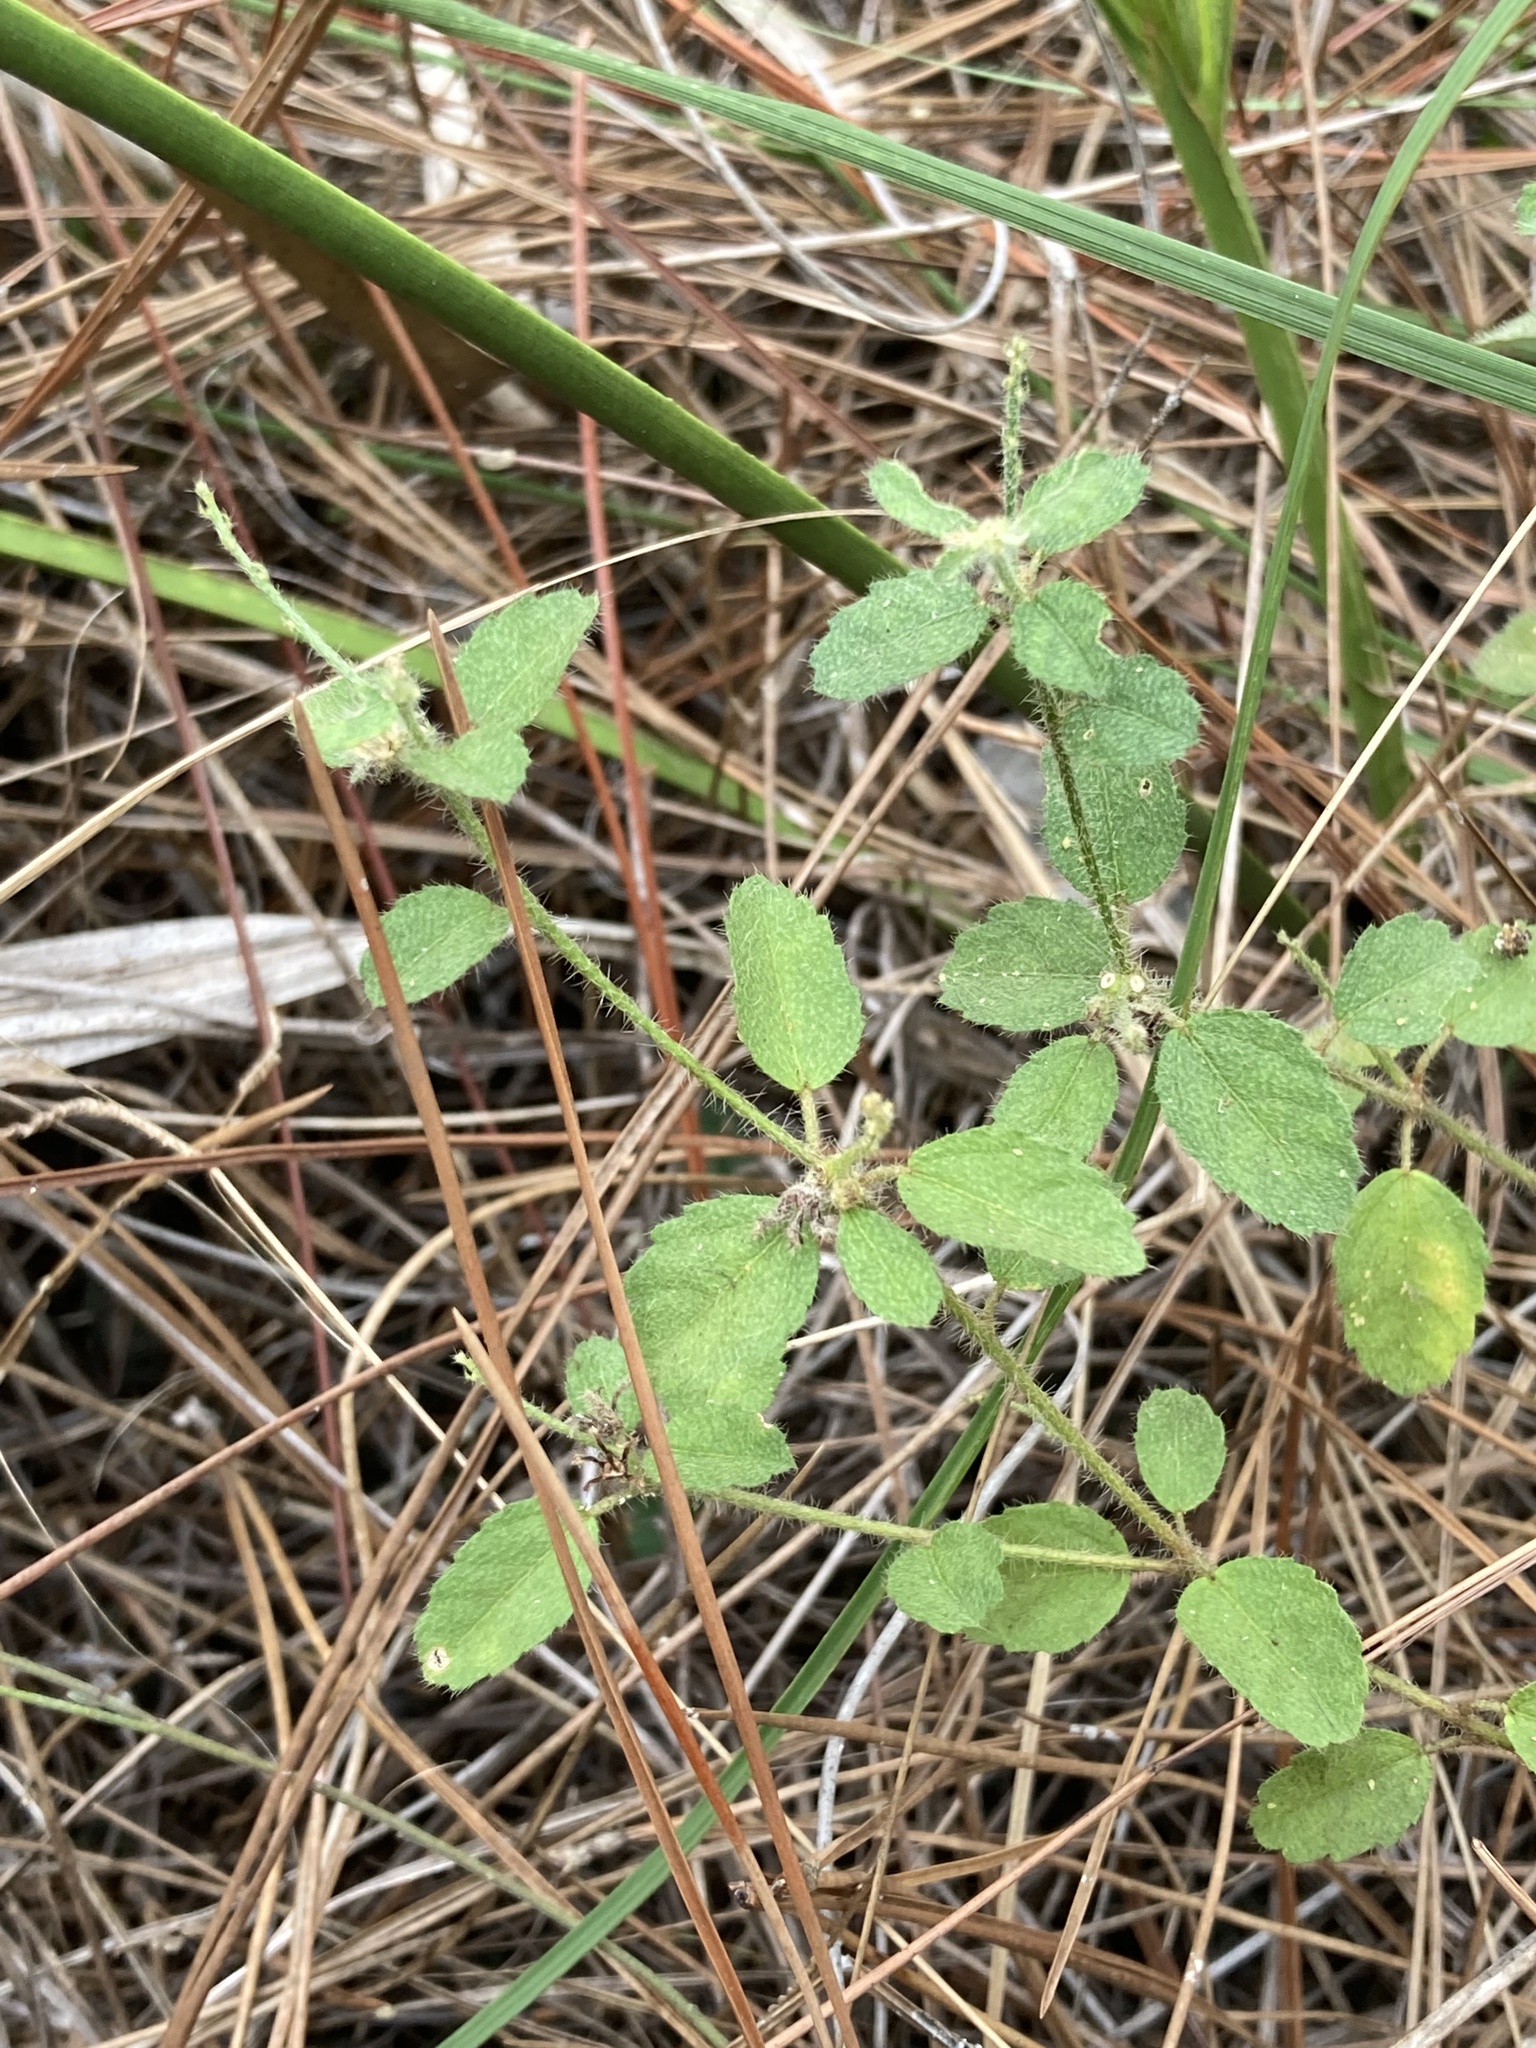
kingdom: Plantae
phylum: Tracheophyta
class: Magnoliopsida
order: Malpighiales
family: Euphorbiaceae
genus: Croton
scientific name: Croton glandulosus
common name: Tropic croton
